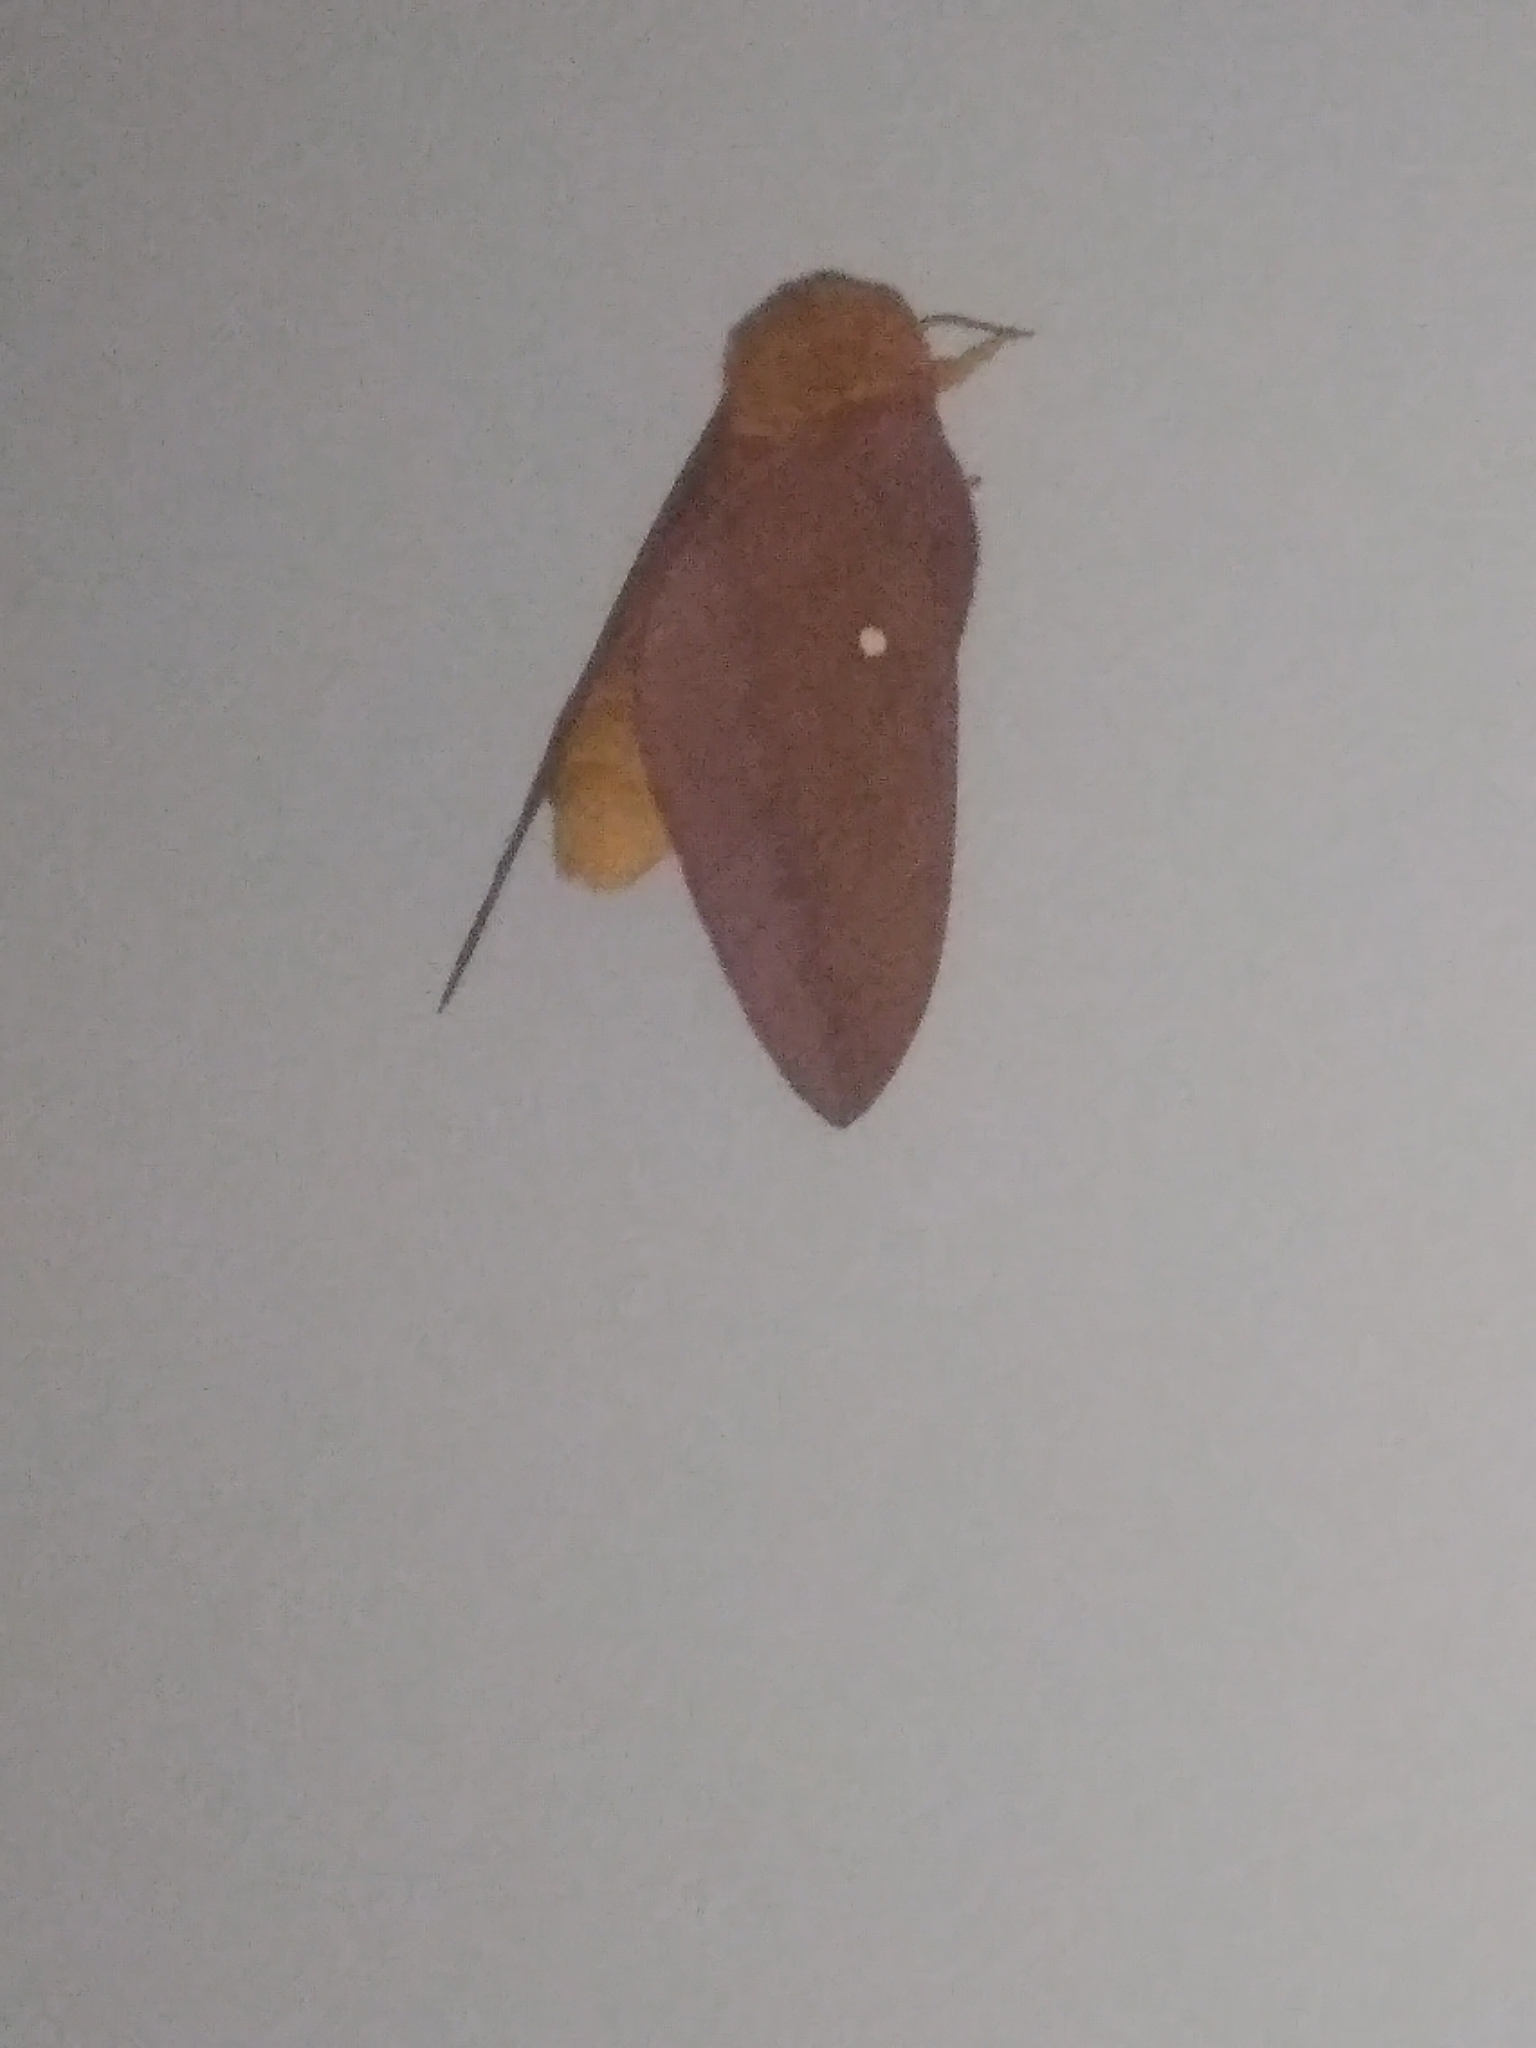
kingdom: Animalia
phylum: Arthropoda
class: Insecta
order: Lepidoptera
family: Saturniidae
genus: Anisota
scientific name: Anisota virginiensis
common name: Pink striped oakworm moth
